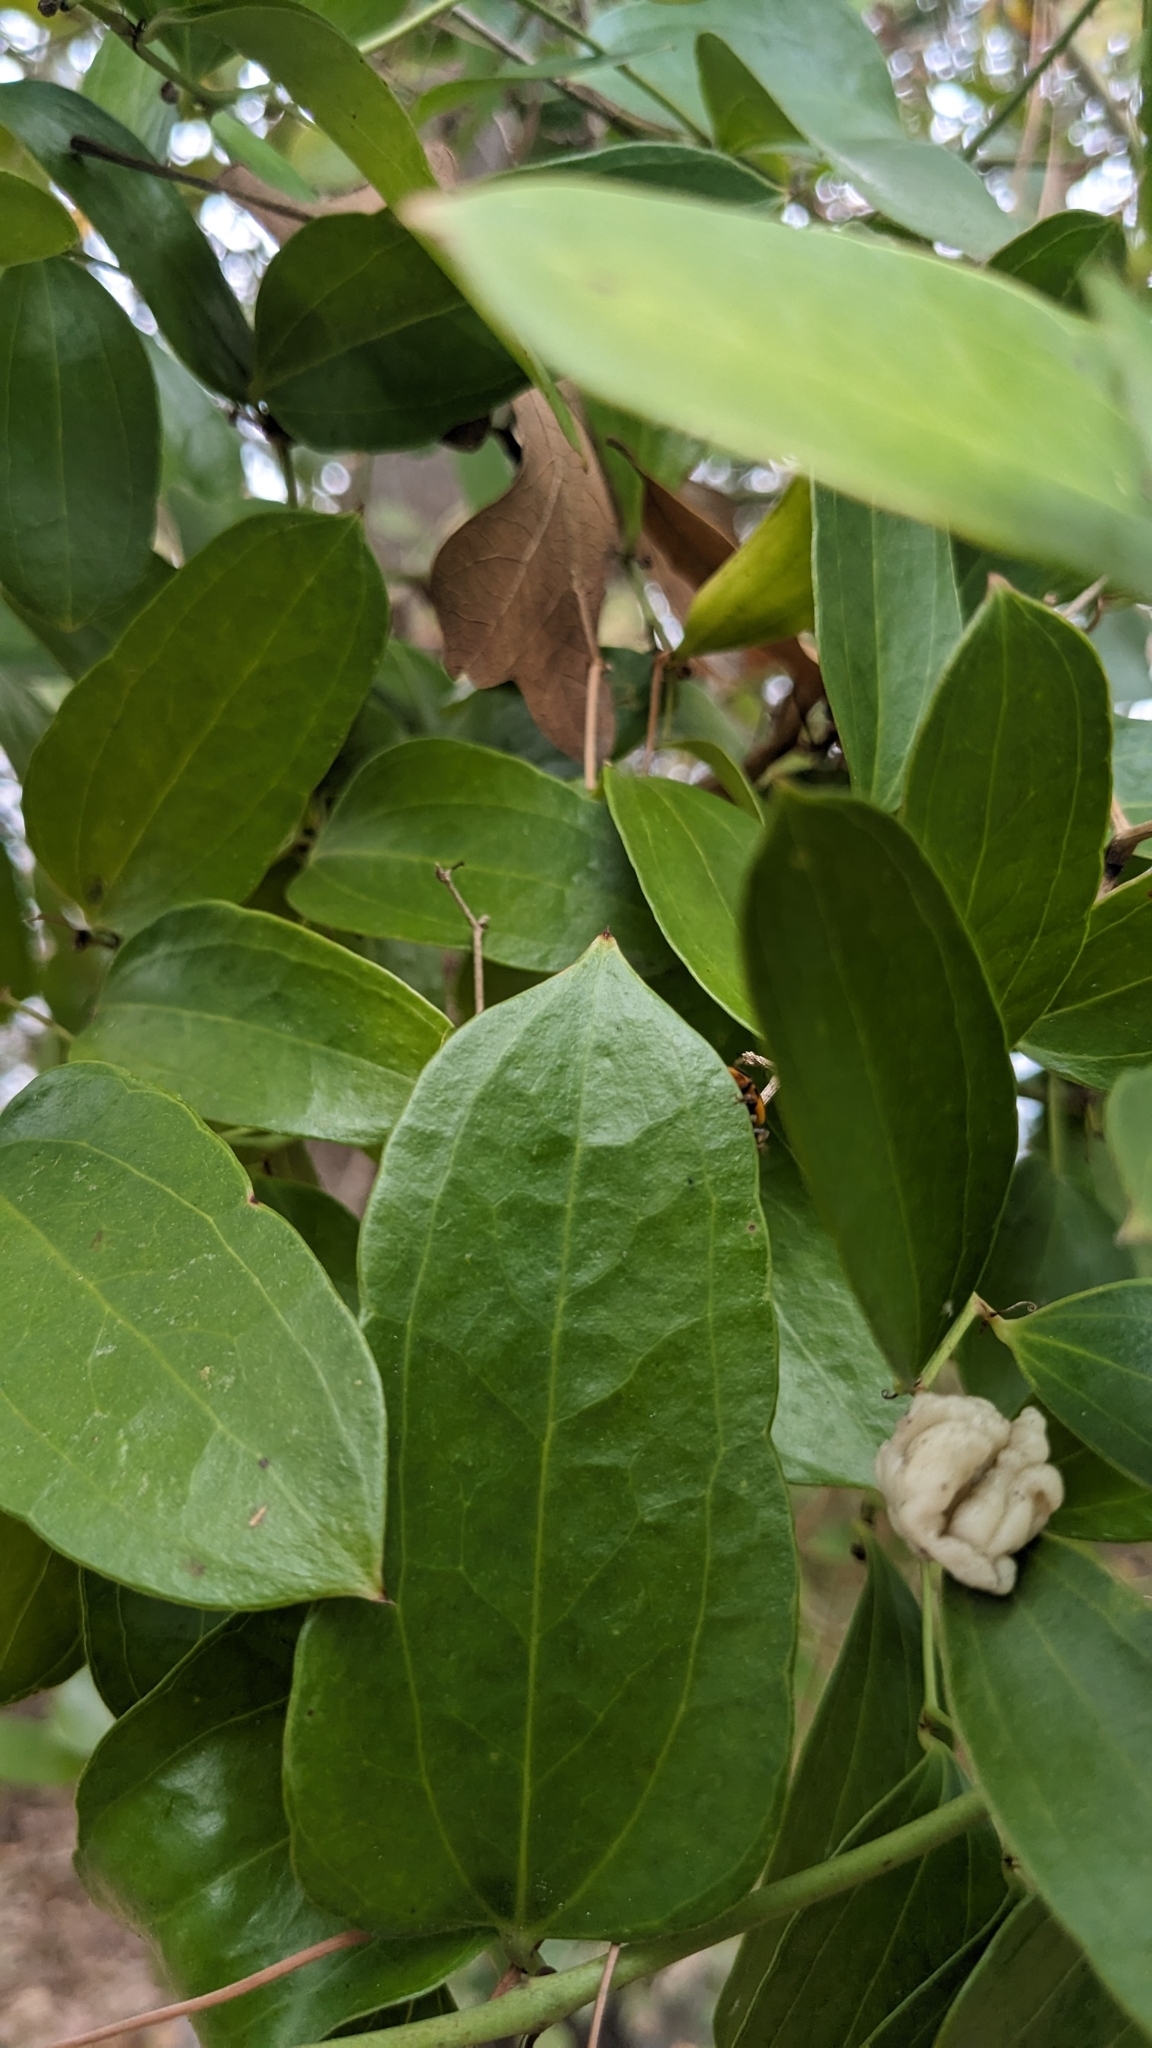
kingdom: Animalia
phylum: Arthropoda
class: Insecta
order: Coleoptera
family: Coccinellidae
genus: Harmonia
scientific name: Harmonia axyridis
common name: Harlequin ladybird
